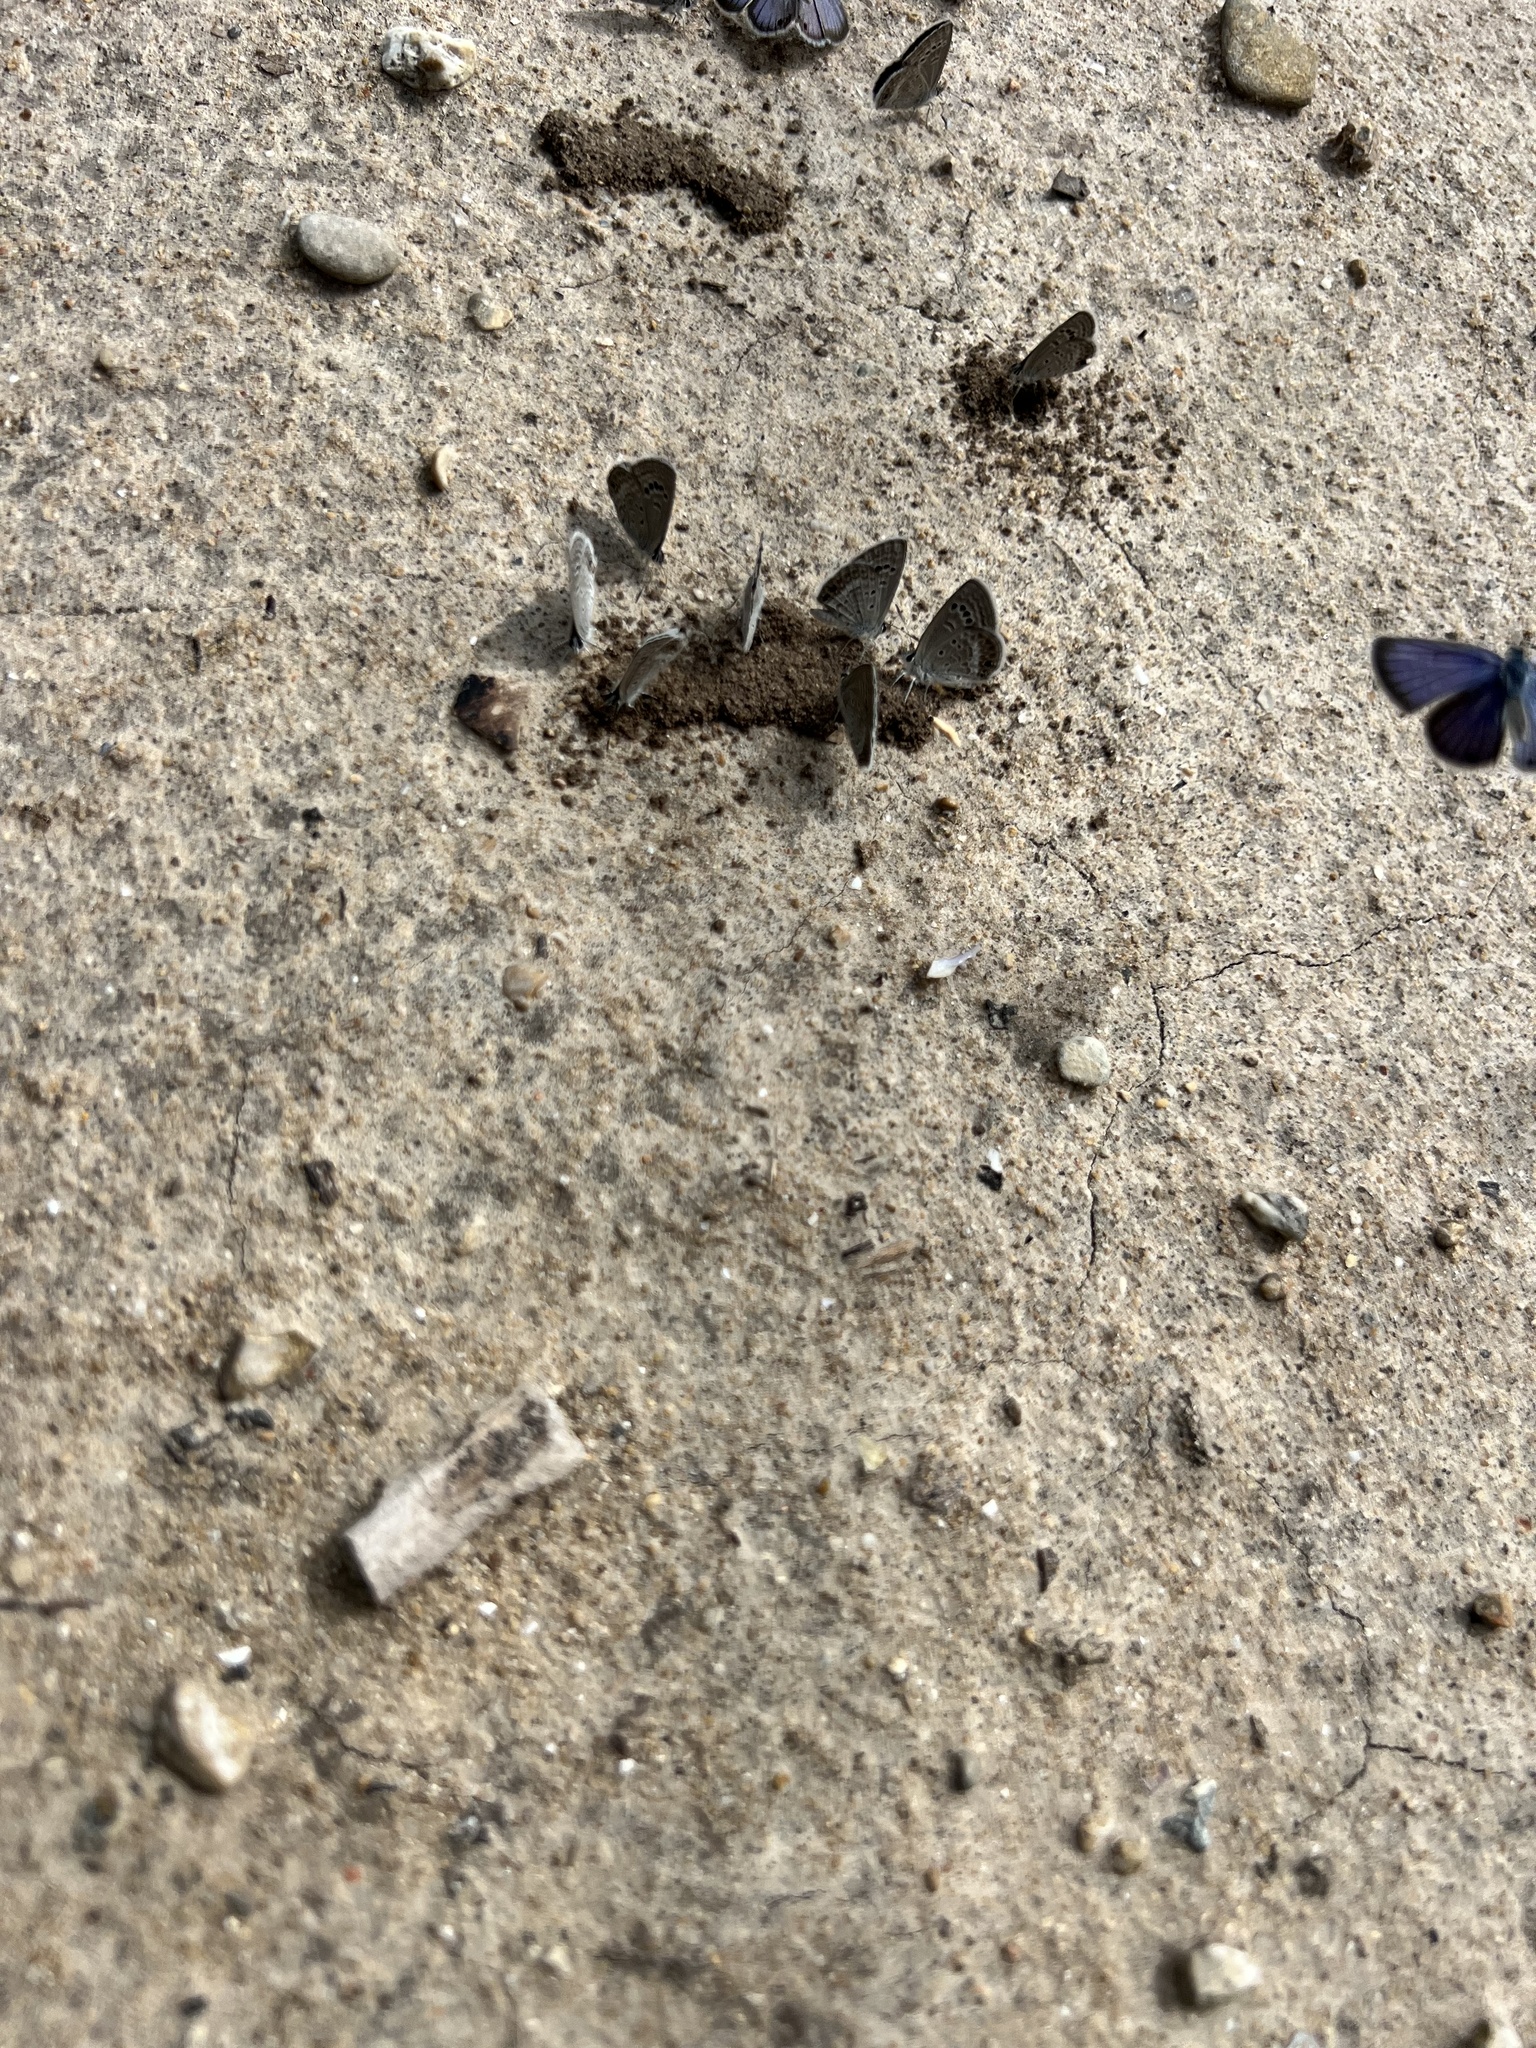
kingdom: Animalia
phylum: Arthropoda
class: Insecta
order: Lepidoptera
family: Lycaenidae
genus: Echinargus
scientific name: Echinargus isola
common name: Reakirt's blue
